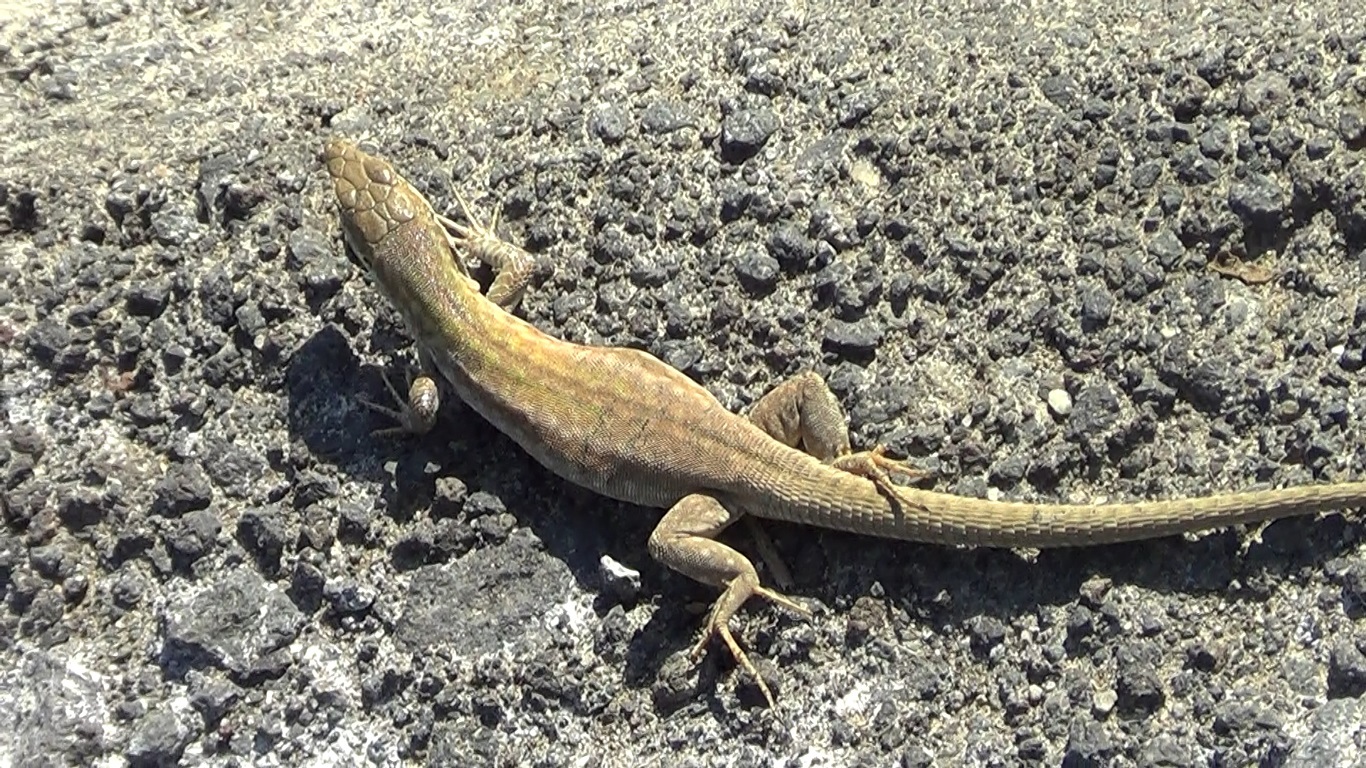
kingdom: Animalia
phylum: Chordata
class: Squamata
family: Lacertidae
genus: Podarcis
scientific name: Podarcis siculus
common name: Italian wall lizard
